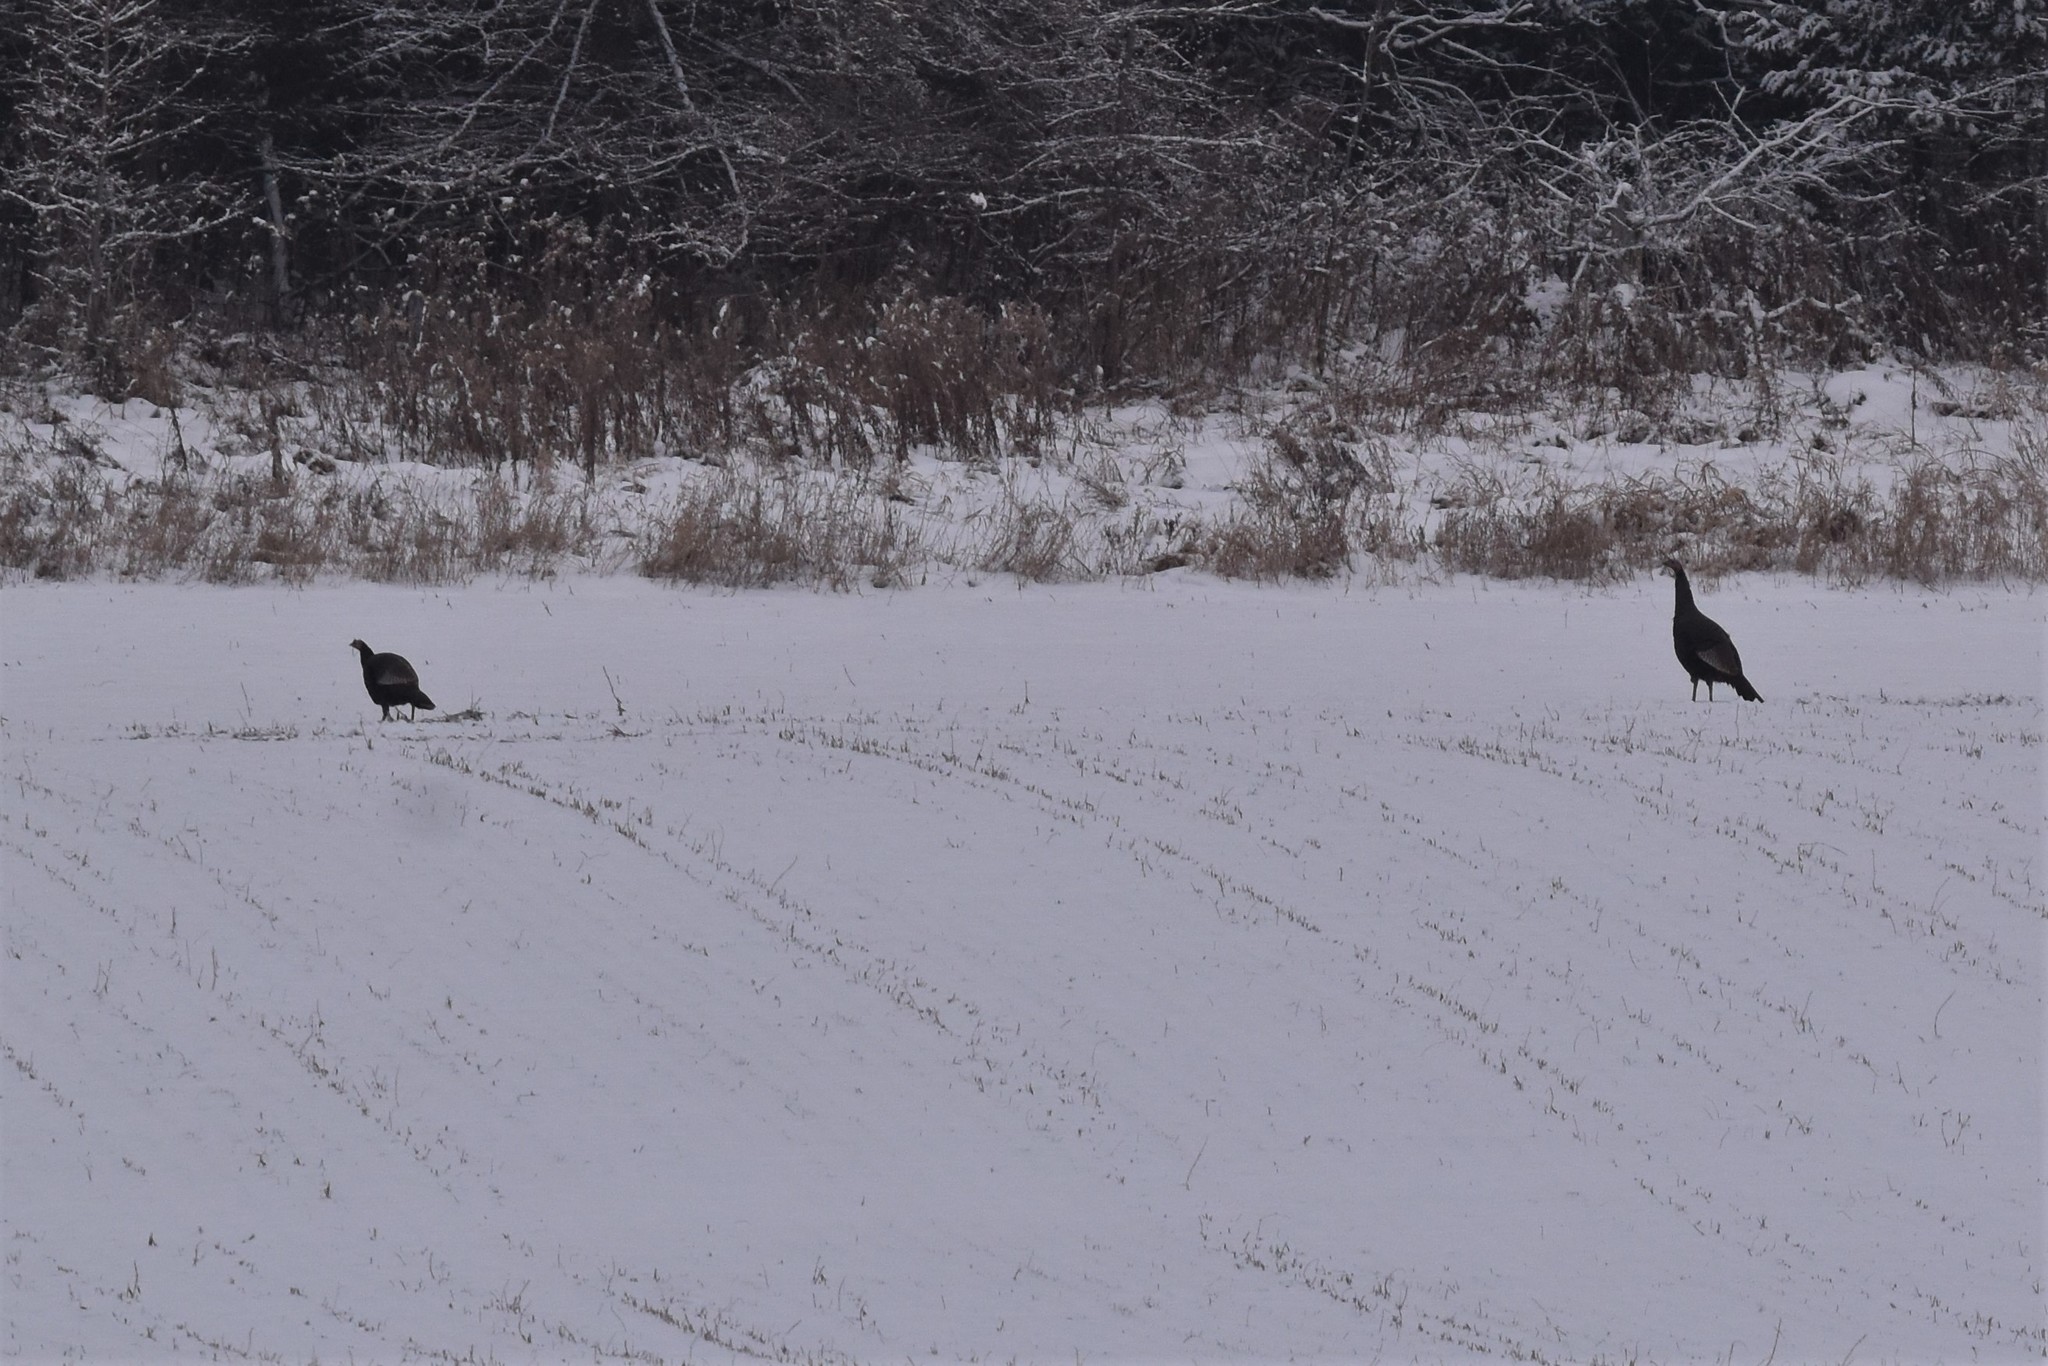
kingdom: Animalia
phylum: Chordata
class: Aves
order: Galliformes
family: Phasianidae
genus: Meleagris
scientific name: Meleagris gallopavo
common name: Wild turkey
